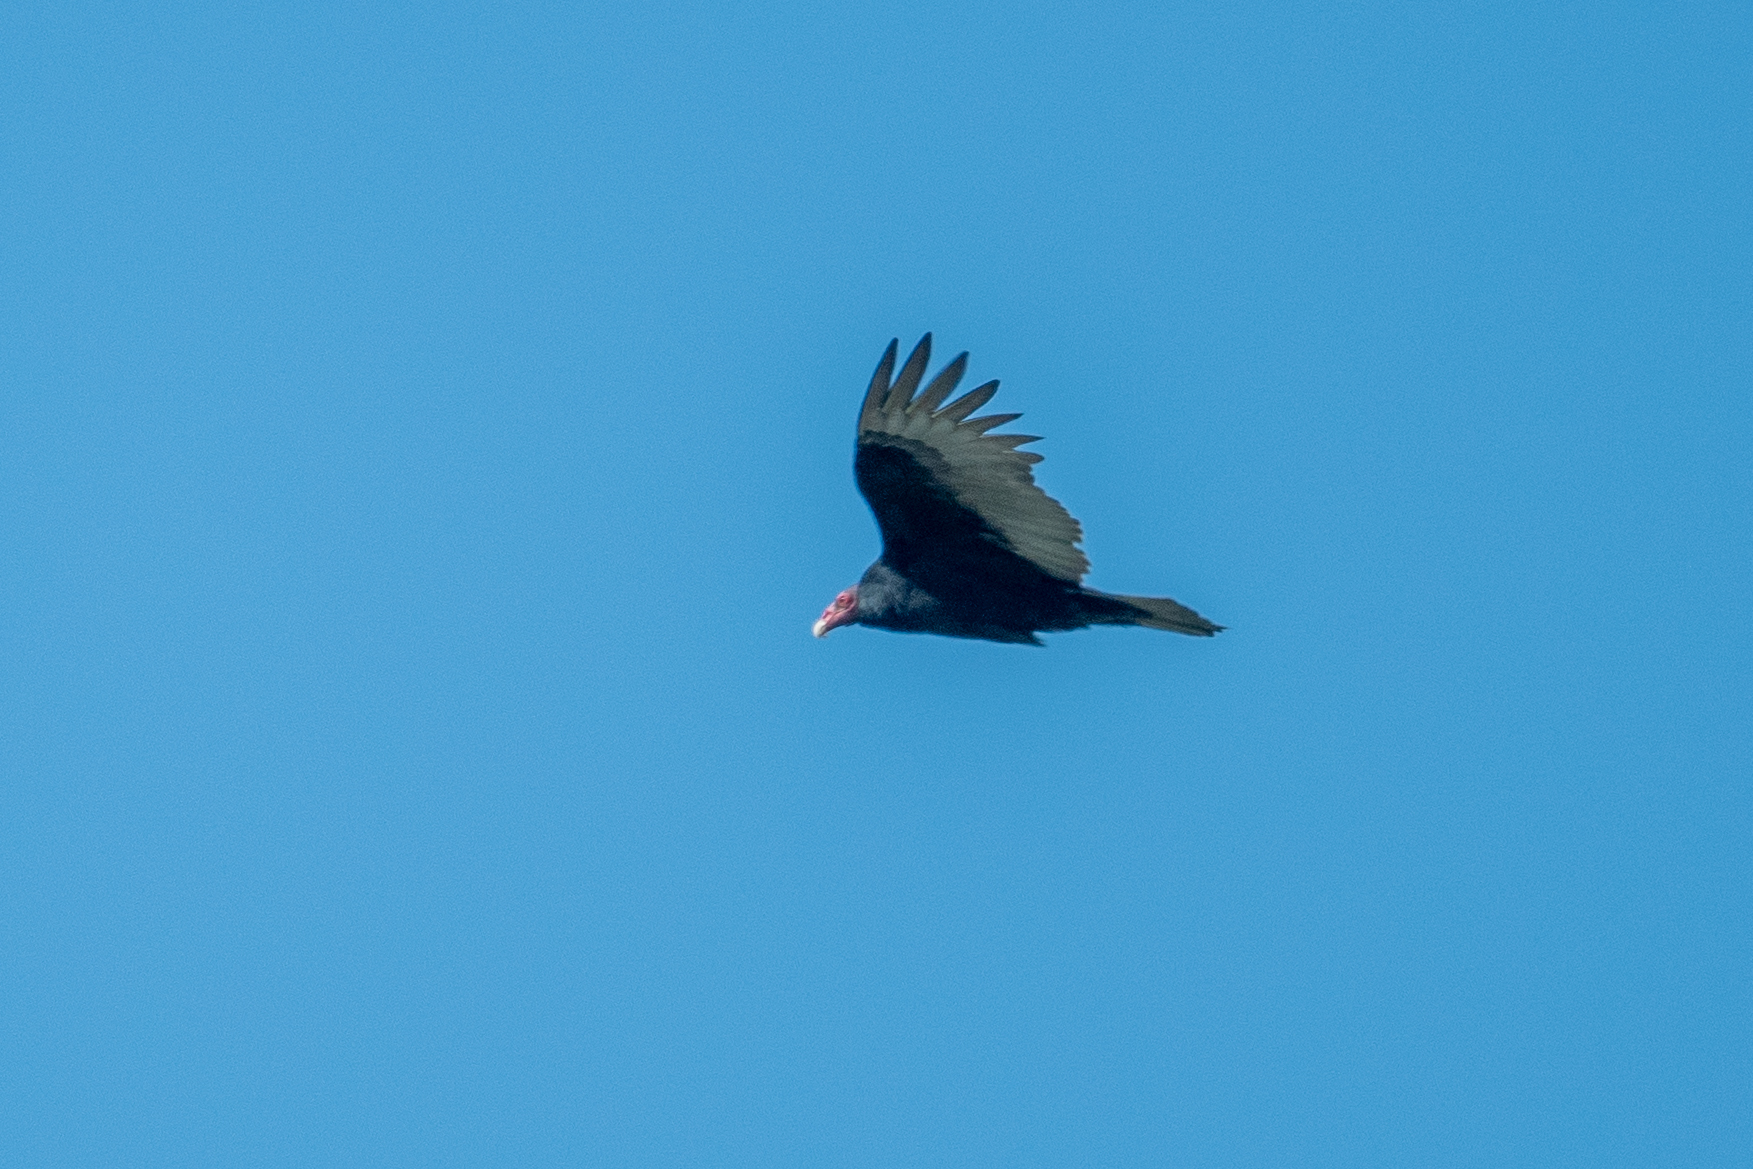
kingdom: Animalia
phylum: Chordata
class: Aves
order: Accipitriformes
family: Cathartidae
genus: Cathartes
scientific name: Cathartes aura
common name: Turkey vulture
